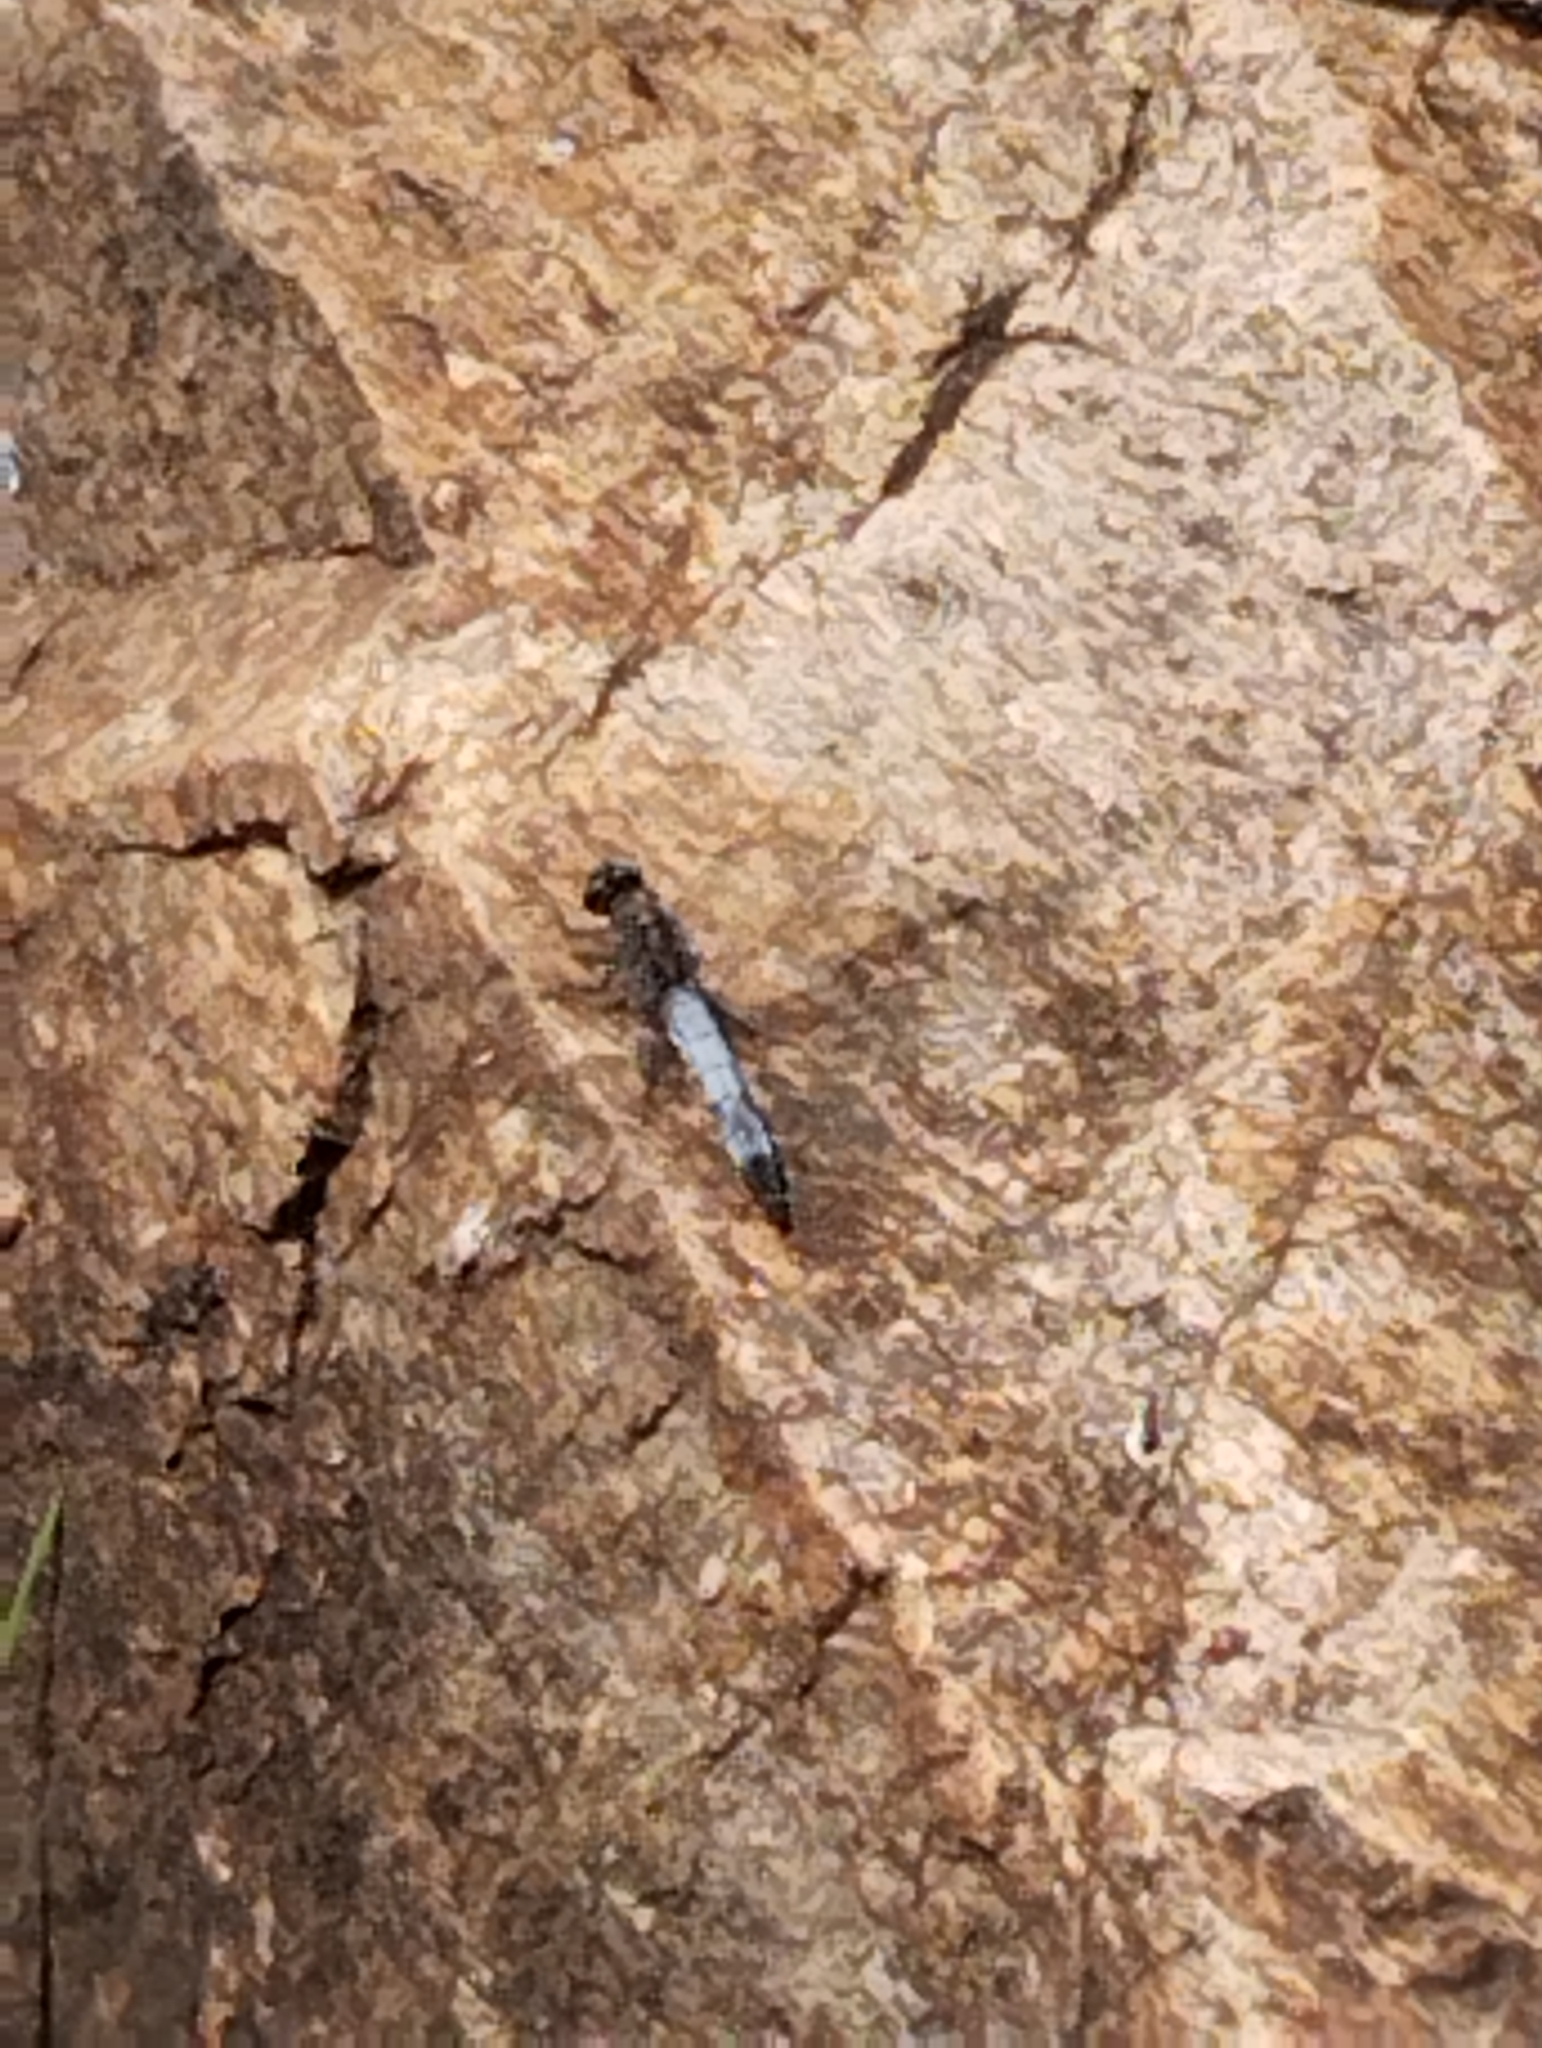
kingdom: Animalia
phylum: Arthropoda
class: Insecta
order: Odonata
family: Libellulidae
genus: Orthetrum
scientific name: Orthetrum cancellatum
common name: Black-tailed skimmer
